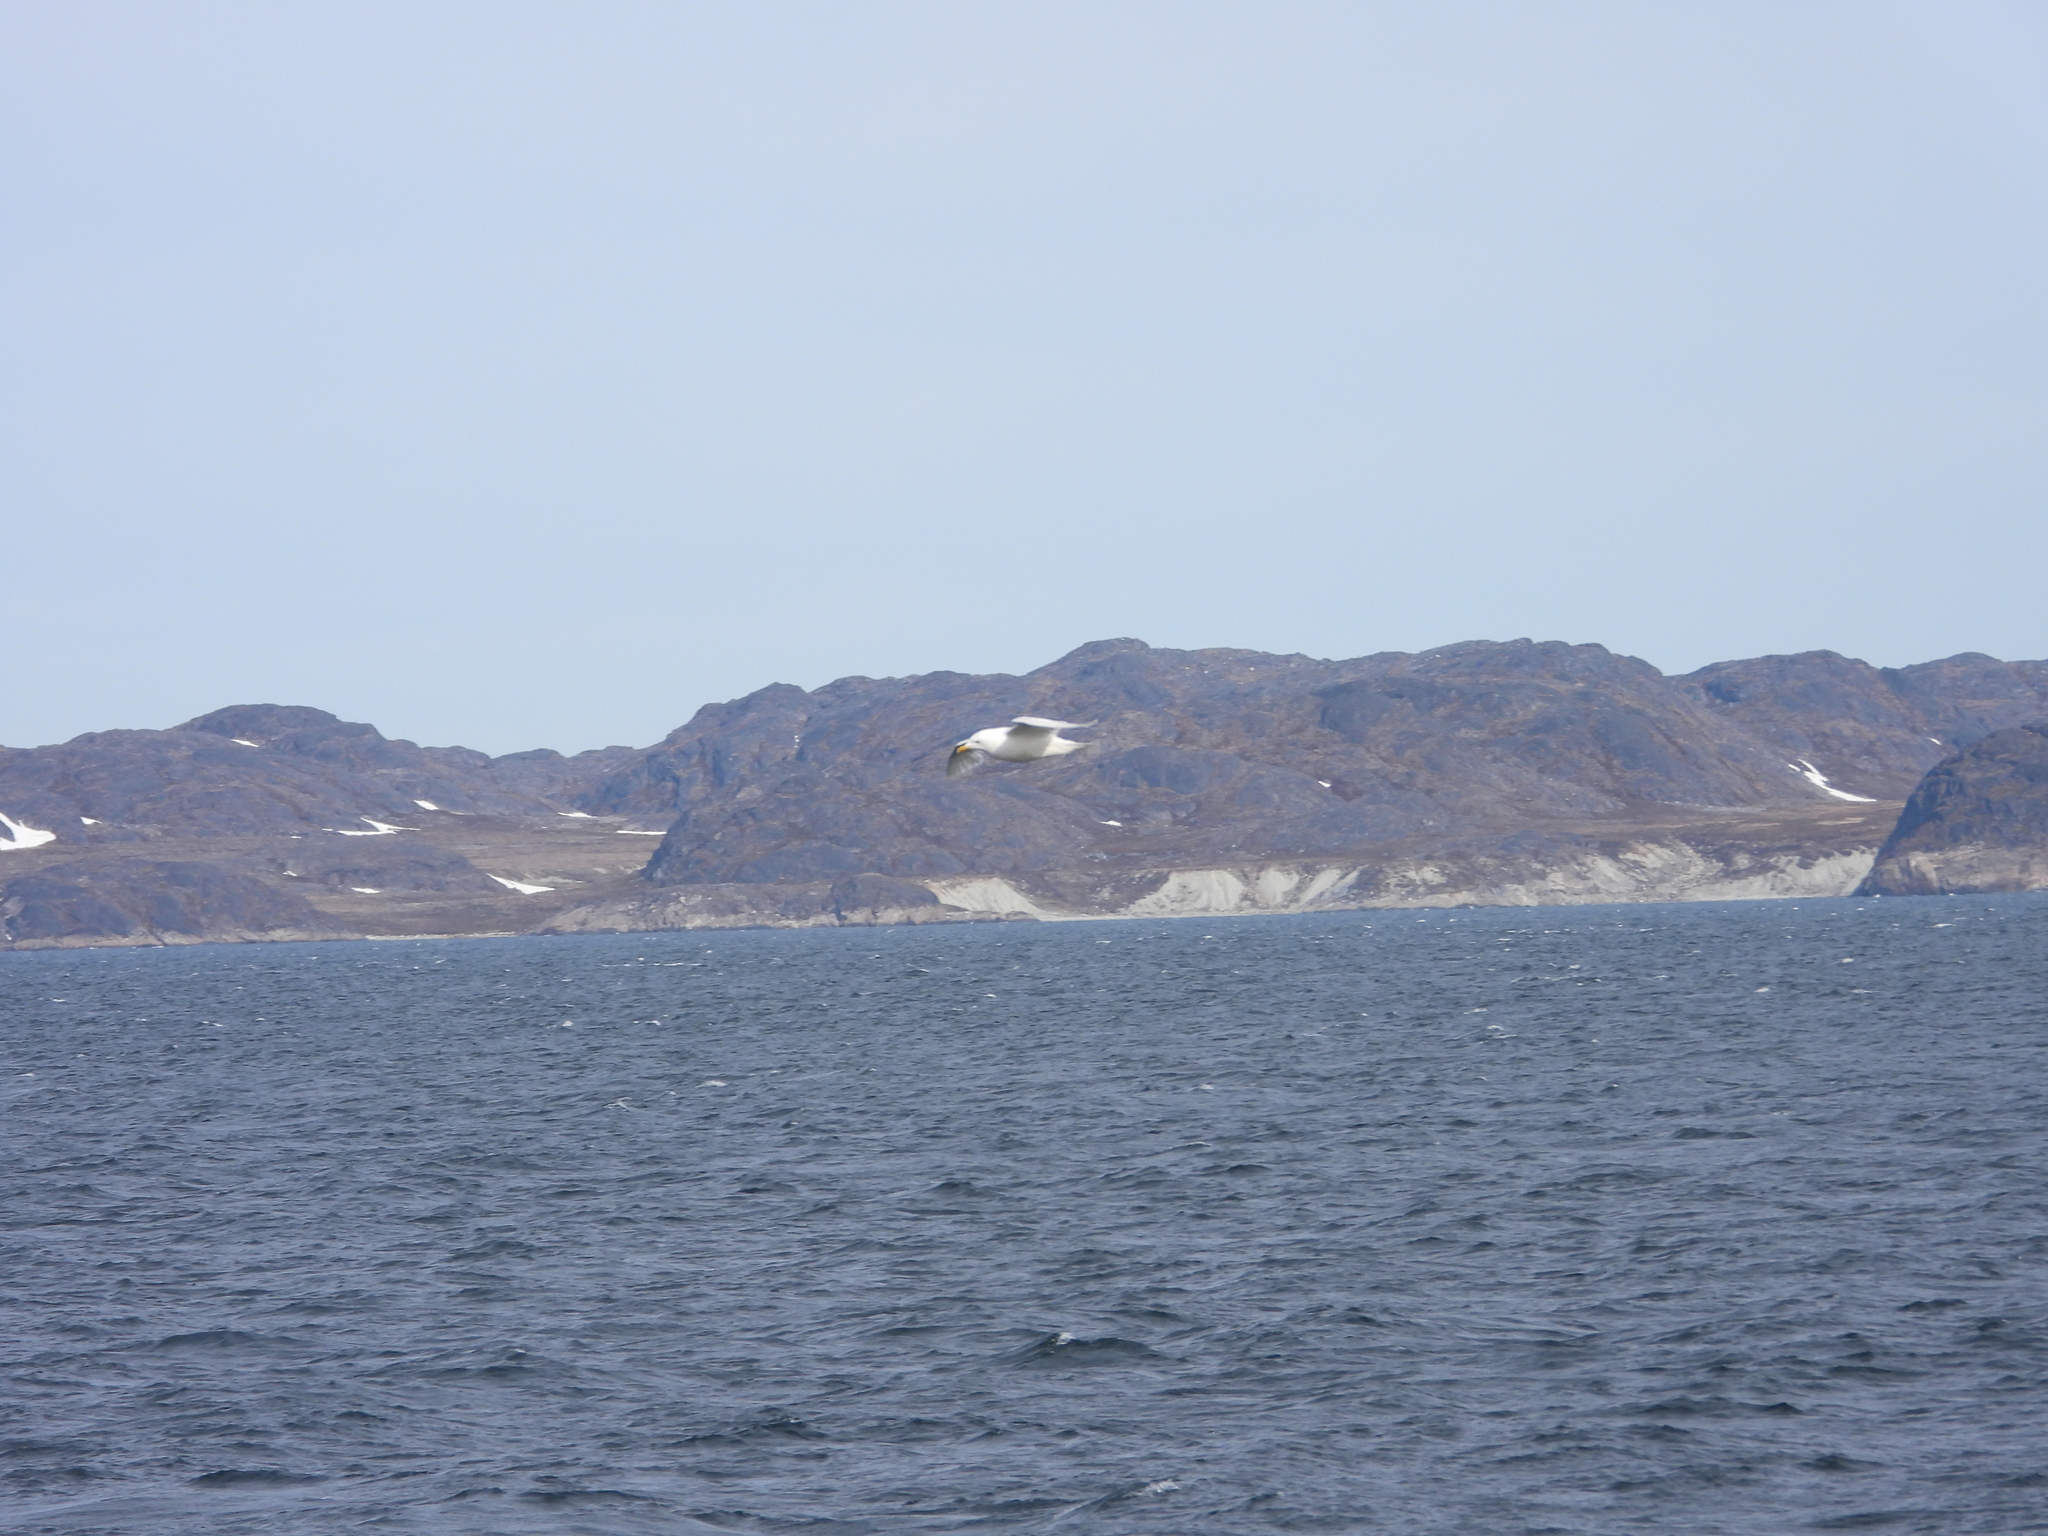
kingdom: Animalia
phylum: Chordata
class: Aves
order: Charadriiformes
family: Laridae
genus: Larus
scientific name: Larus glaucoides
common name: Iceland gull
